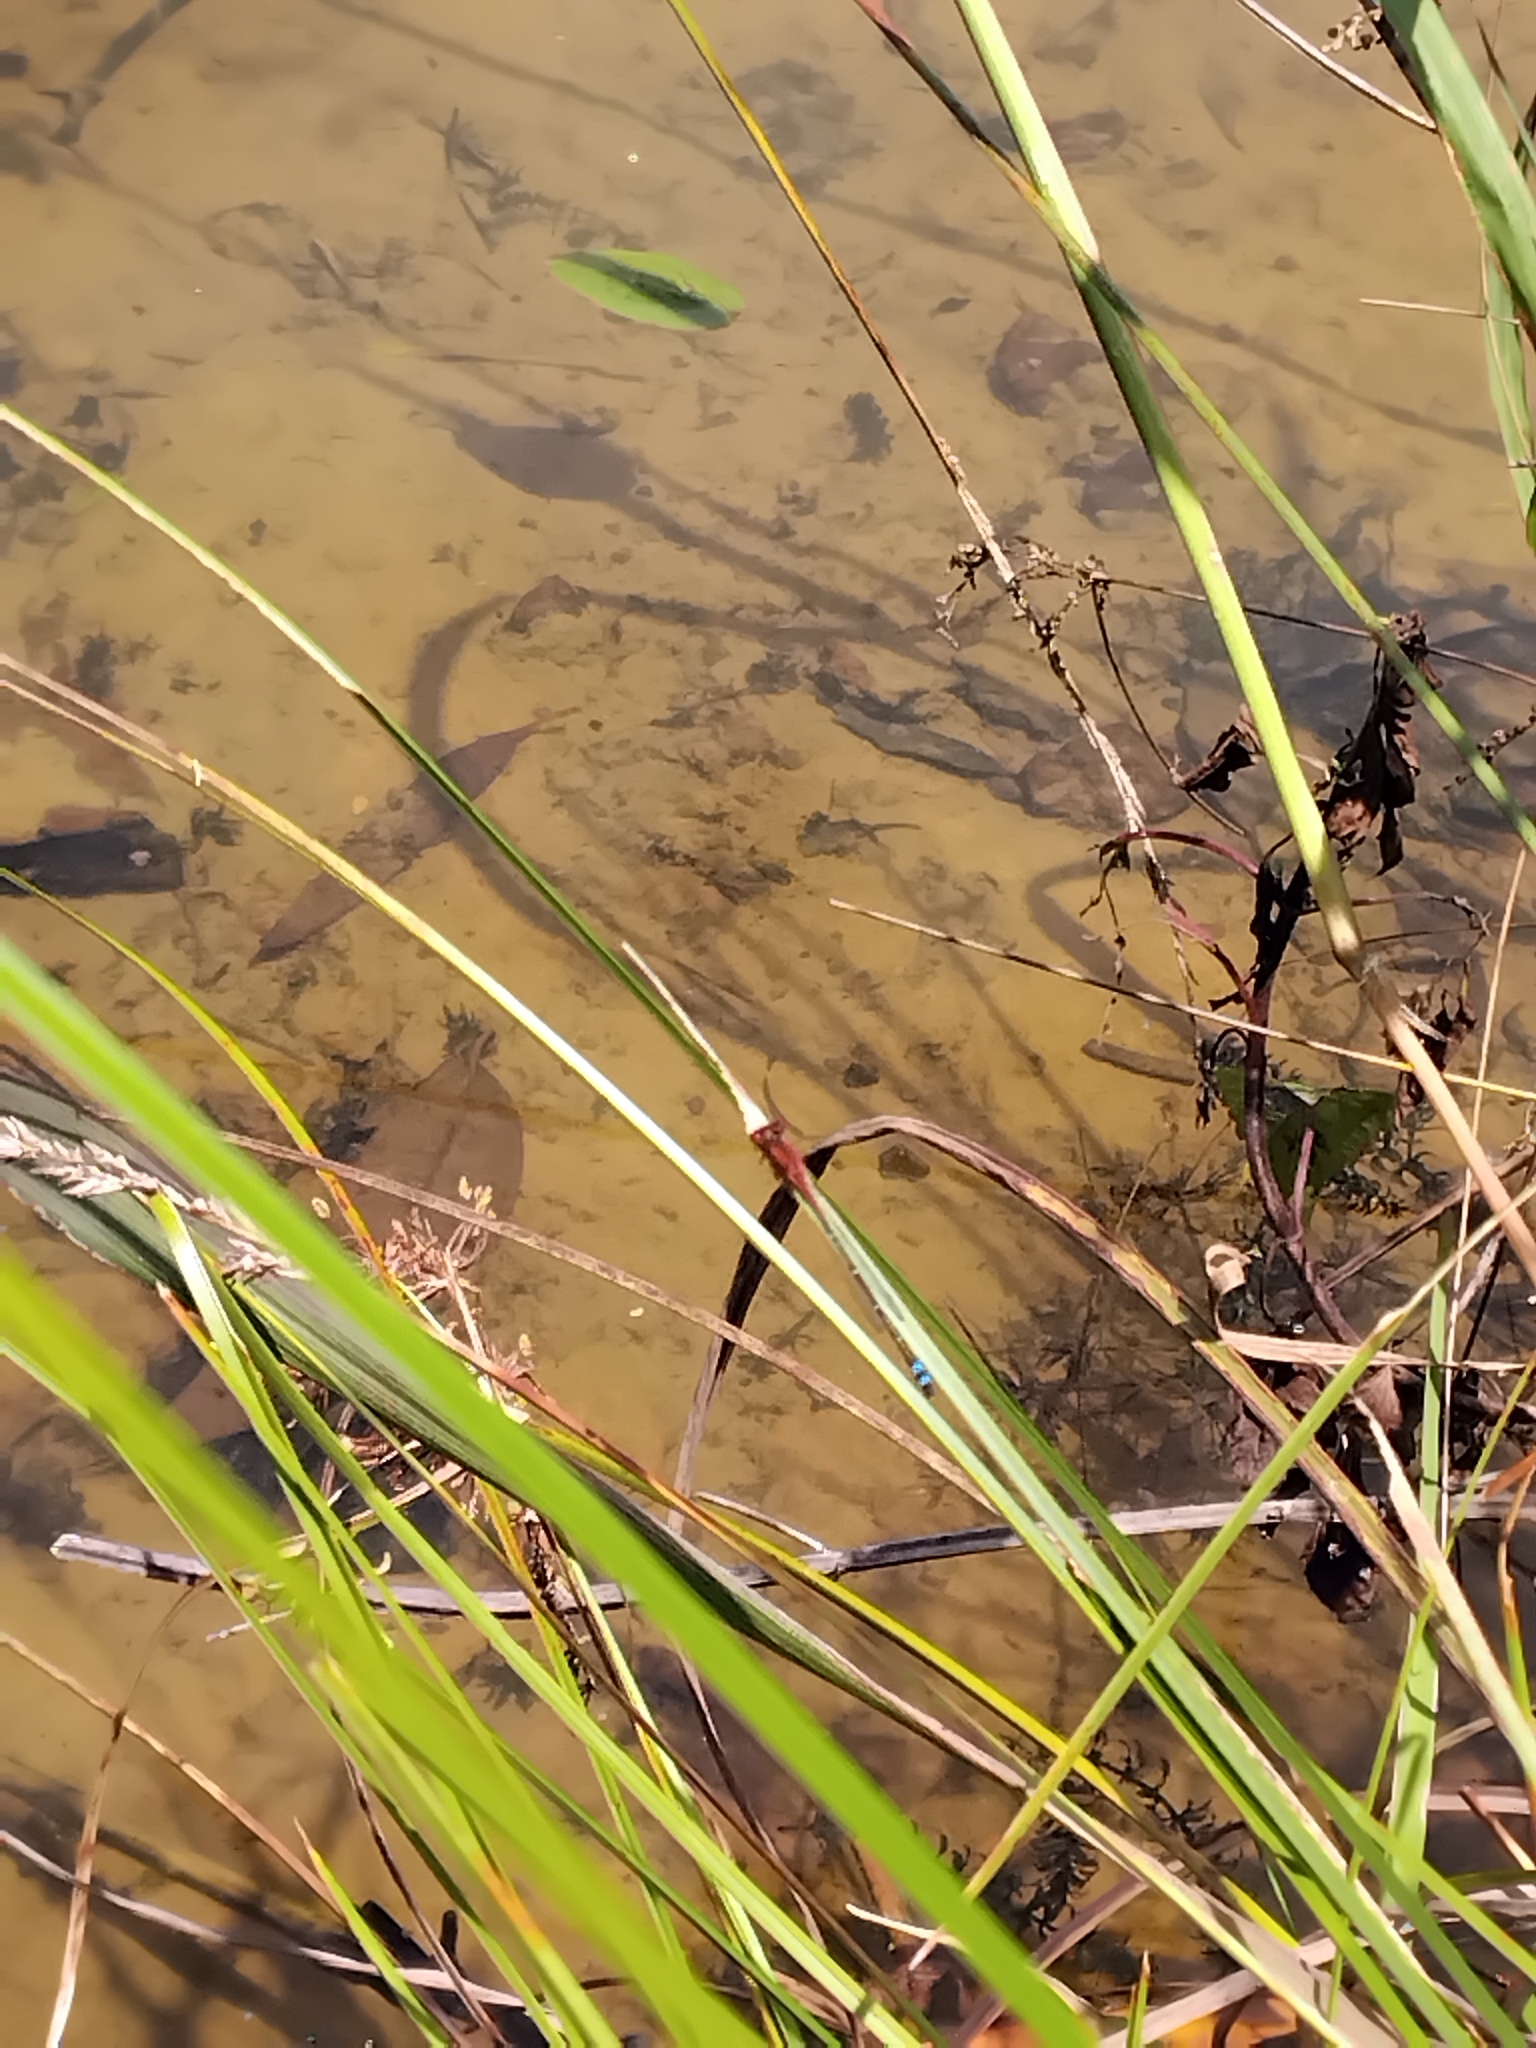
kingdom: Animalia
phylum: Arthropoda
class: Insecta
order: Odonata
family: Coenagrionidae
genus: Xanthagrion
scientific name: Xanthagrion erythroneurum
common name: Red and blue damsel
